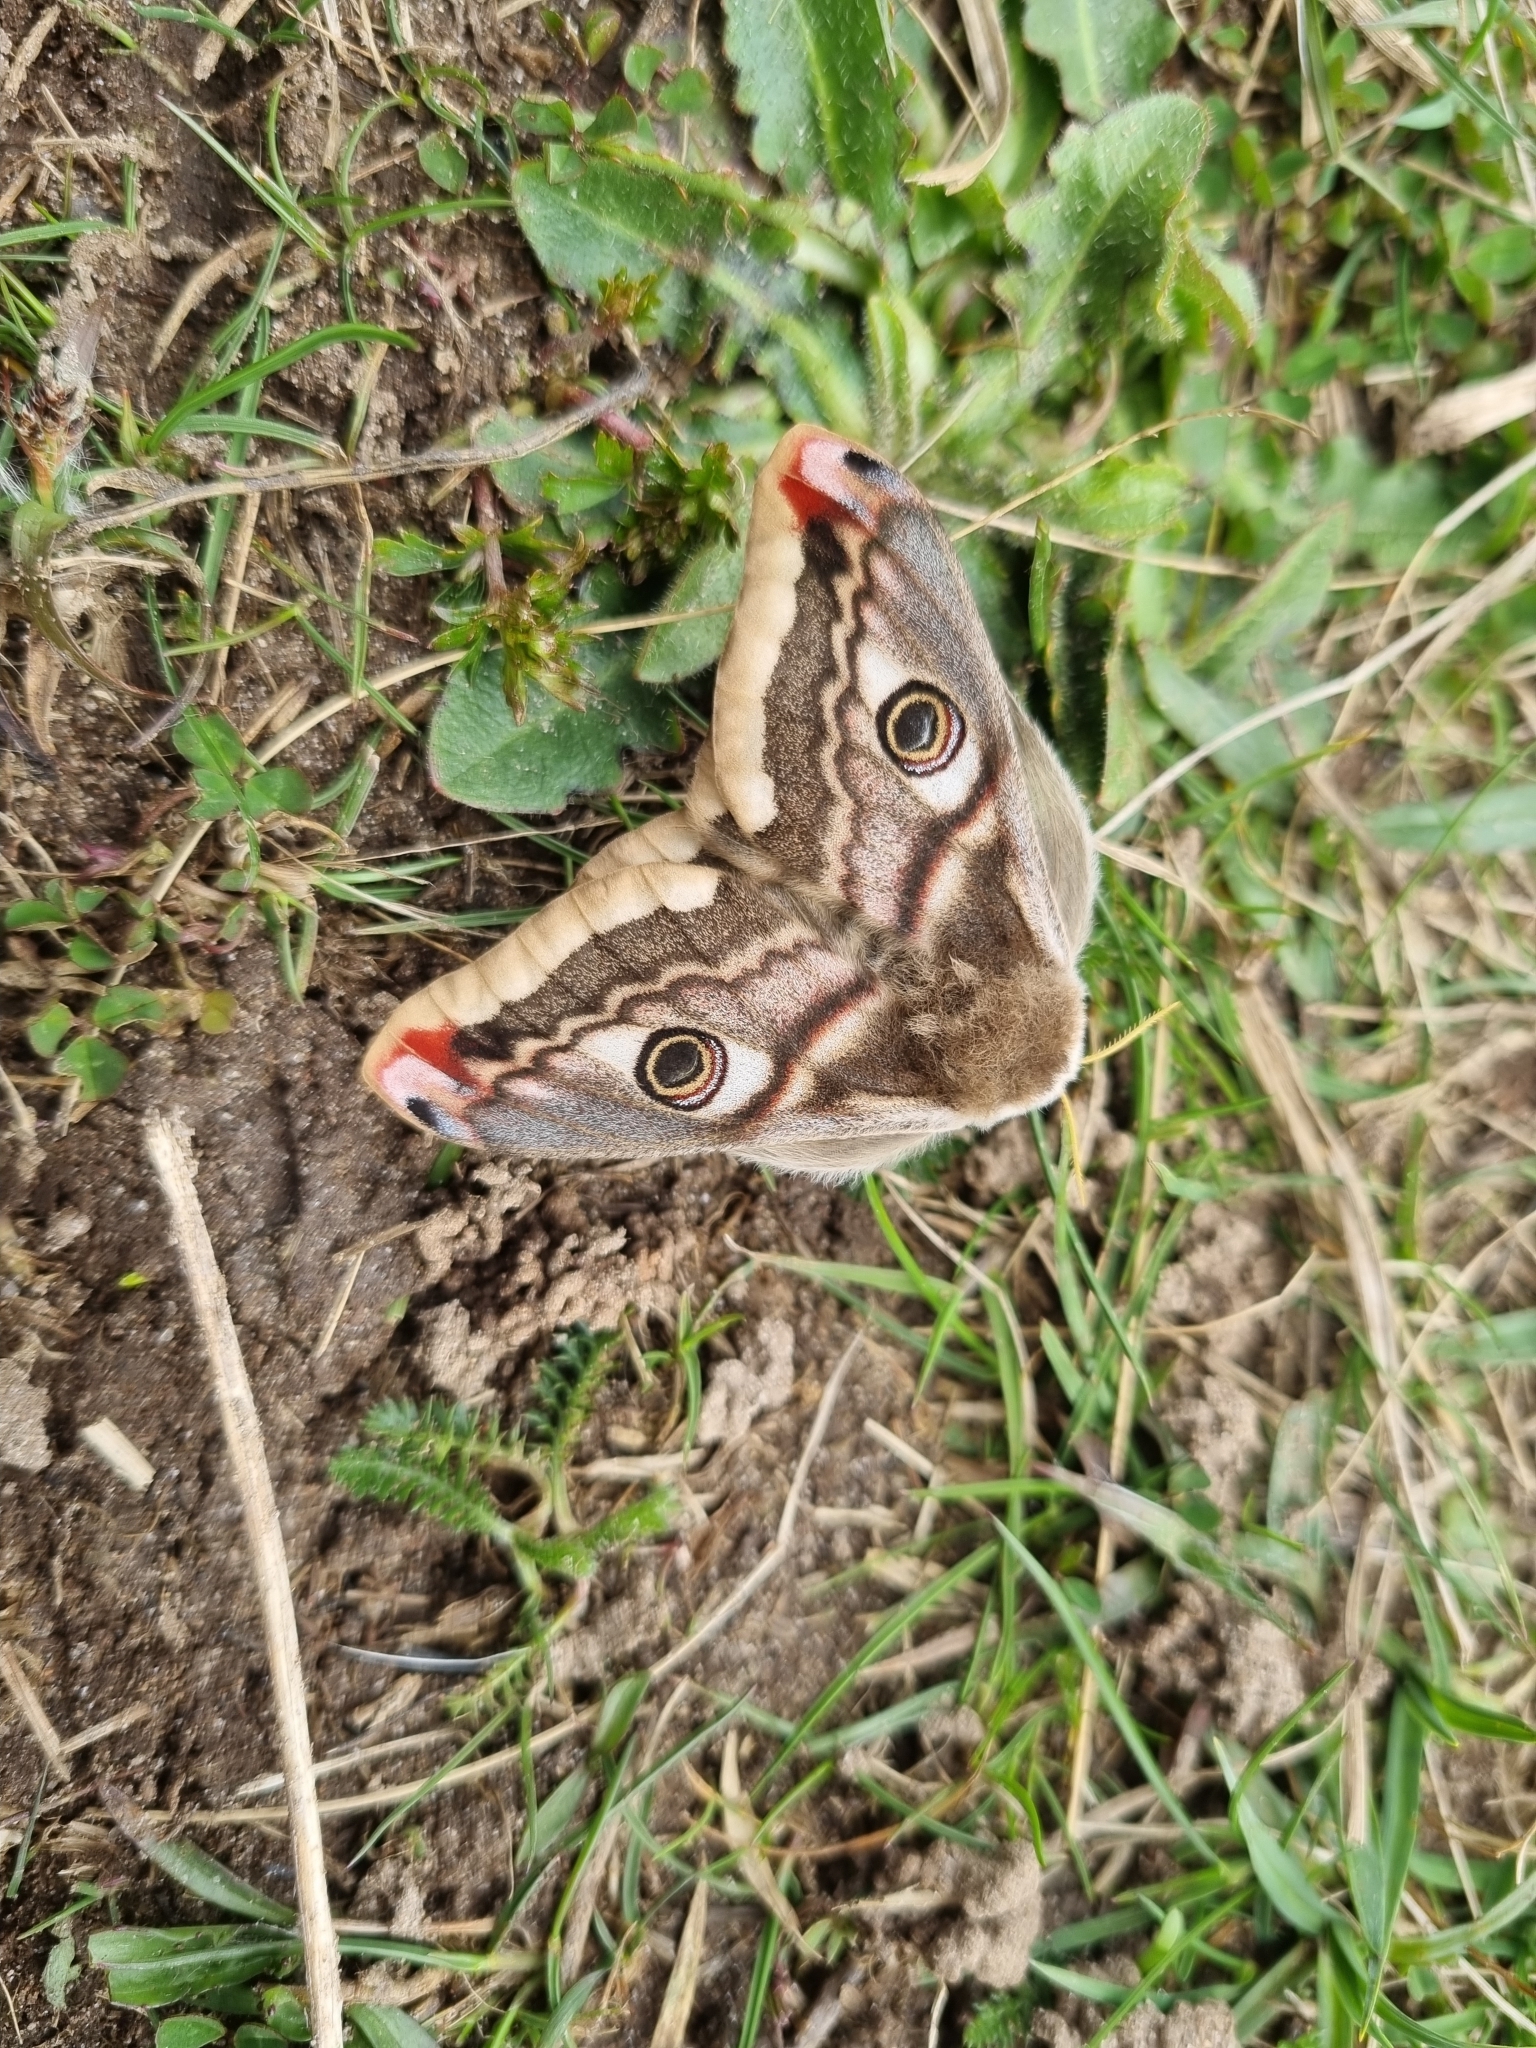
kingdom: Animalia
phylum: Arthropoda
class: Insecta
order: Lepidoptera
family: Saturniidae
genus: Saturnia
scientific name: Saturnia pavonia
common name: Emperor moth
